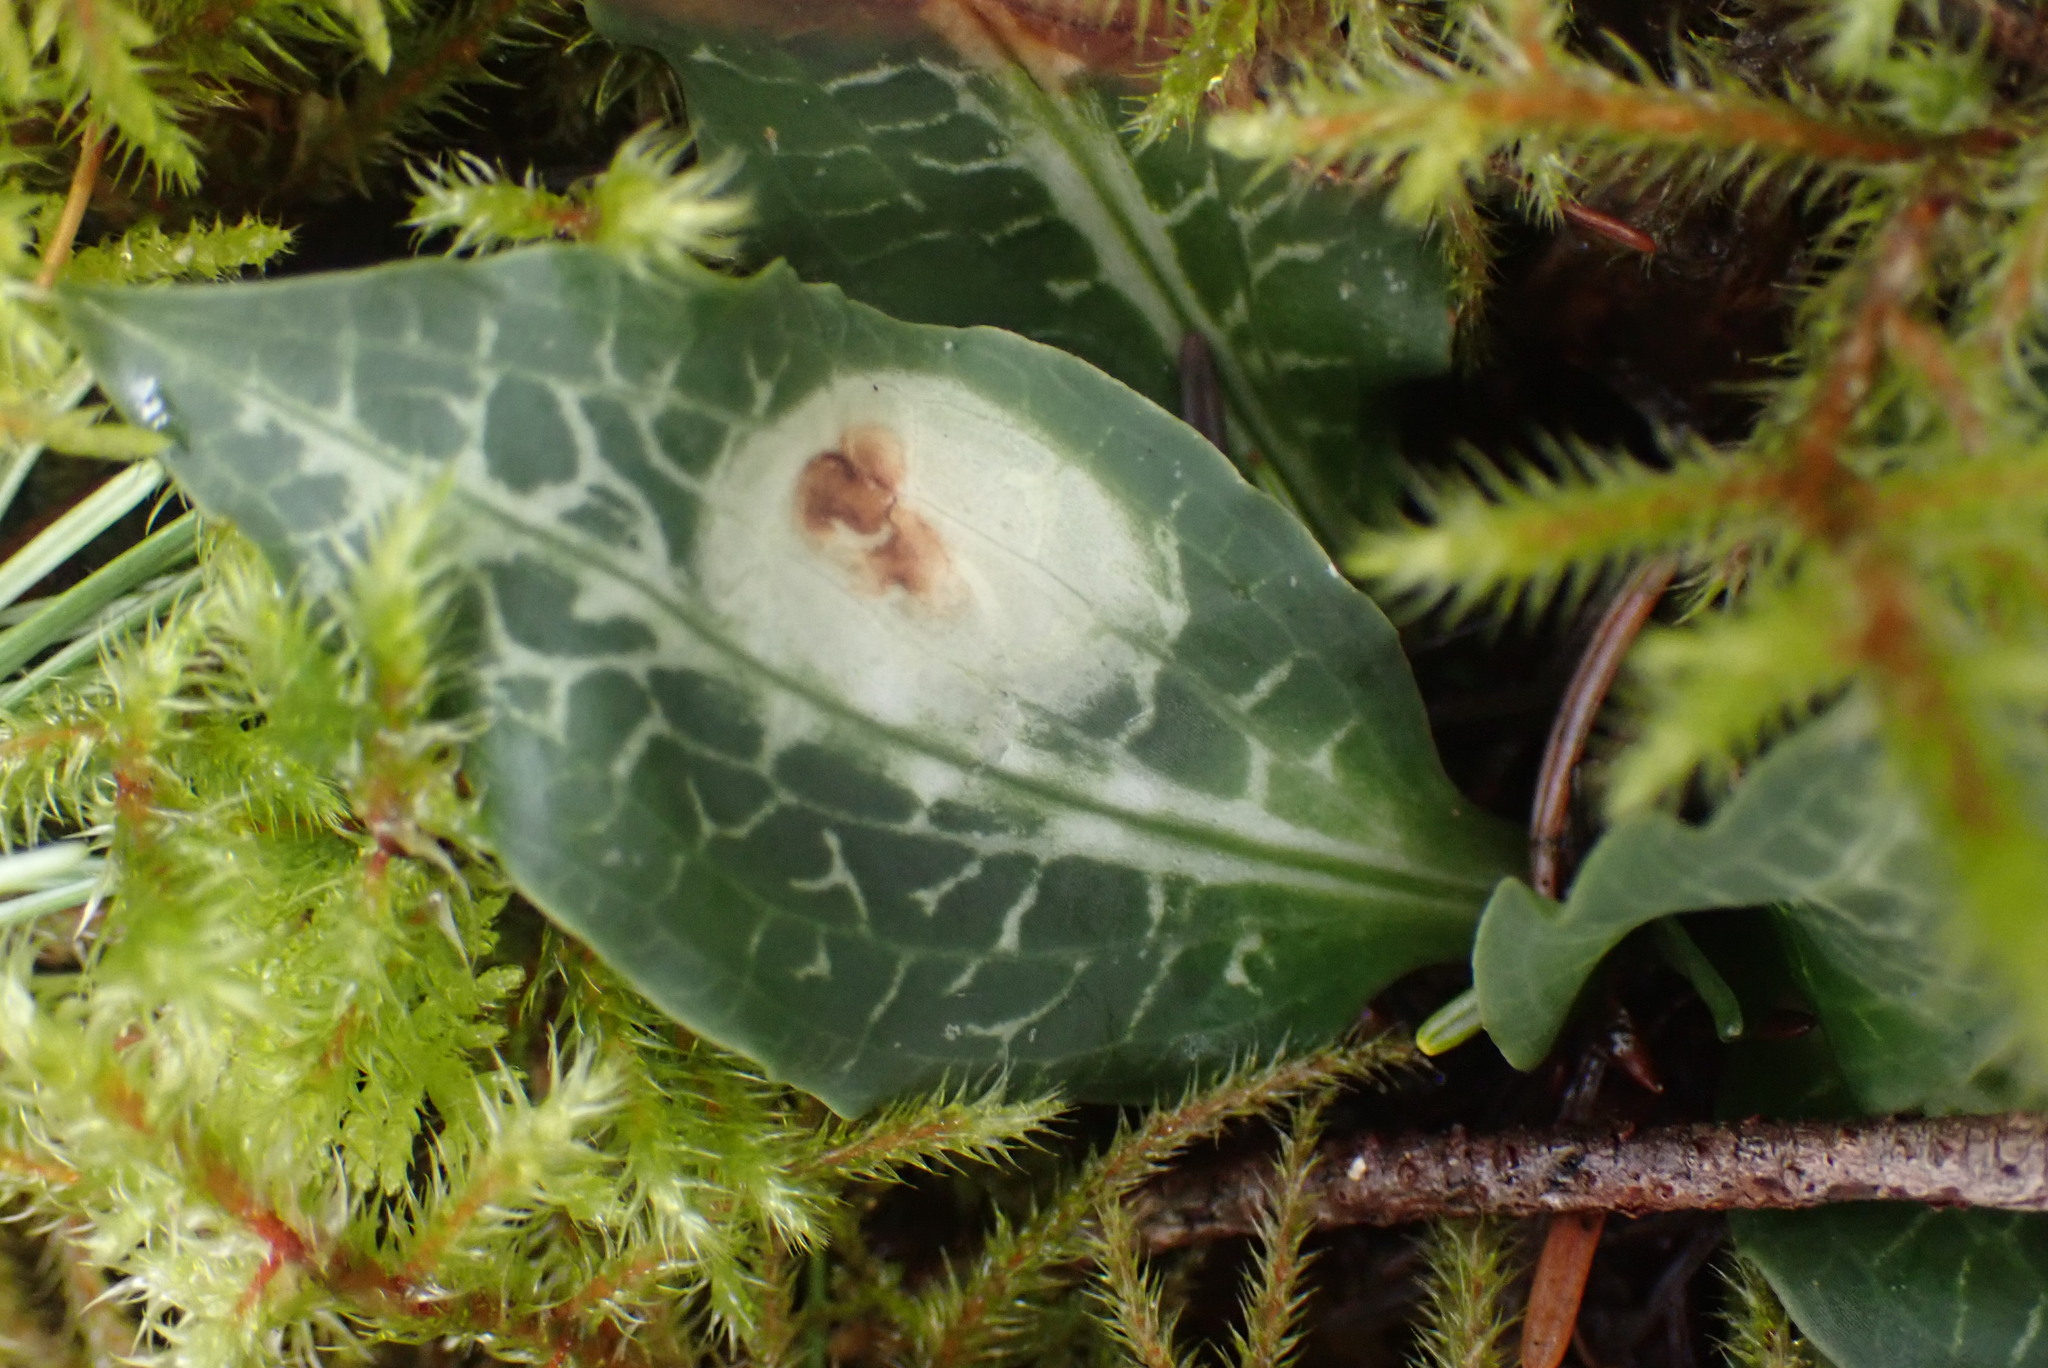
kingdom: Plantae
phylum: Tracheophyta
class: Liliopsida
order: Asparagales
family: Orchidaceae
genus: Goodyera
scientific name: Goodyera oblongifolia
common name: Giant rattlesnake-plantain
